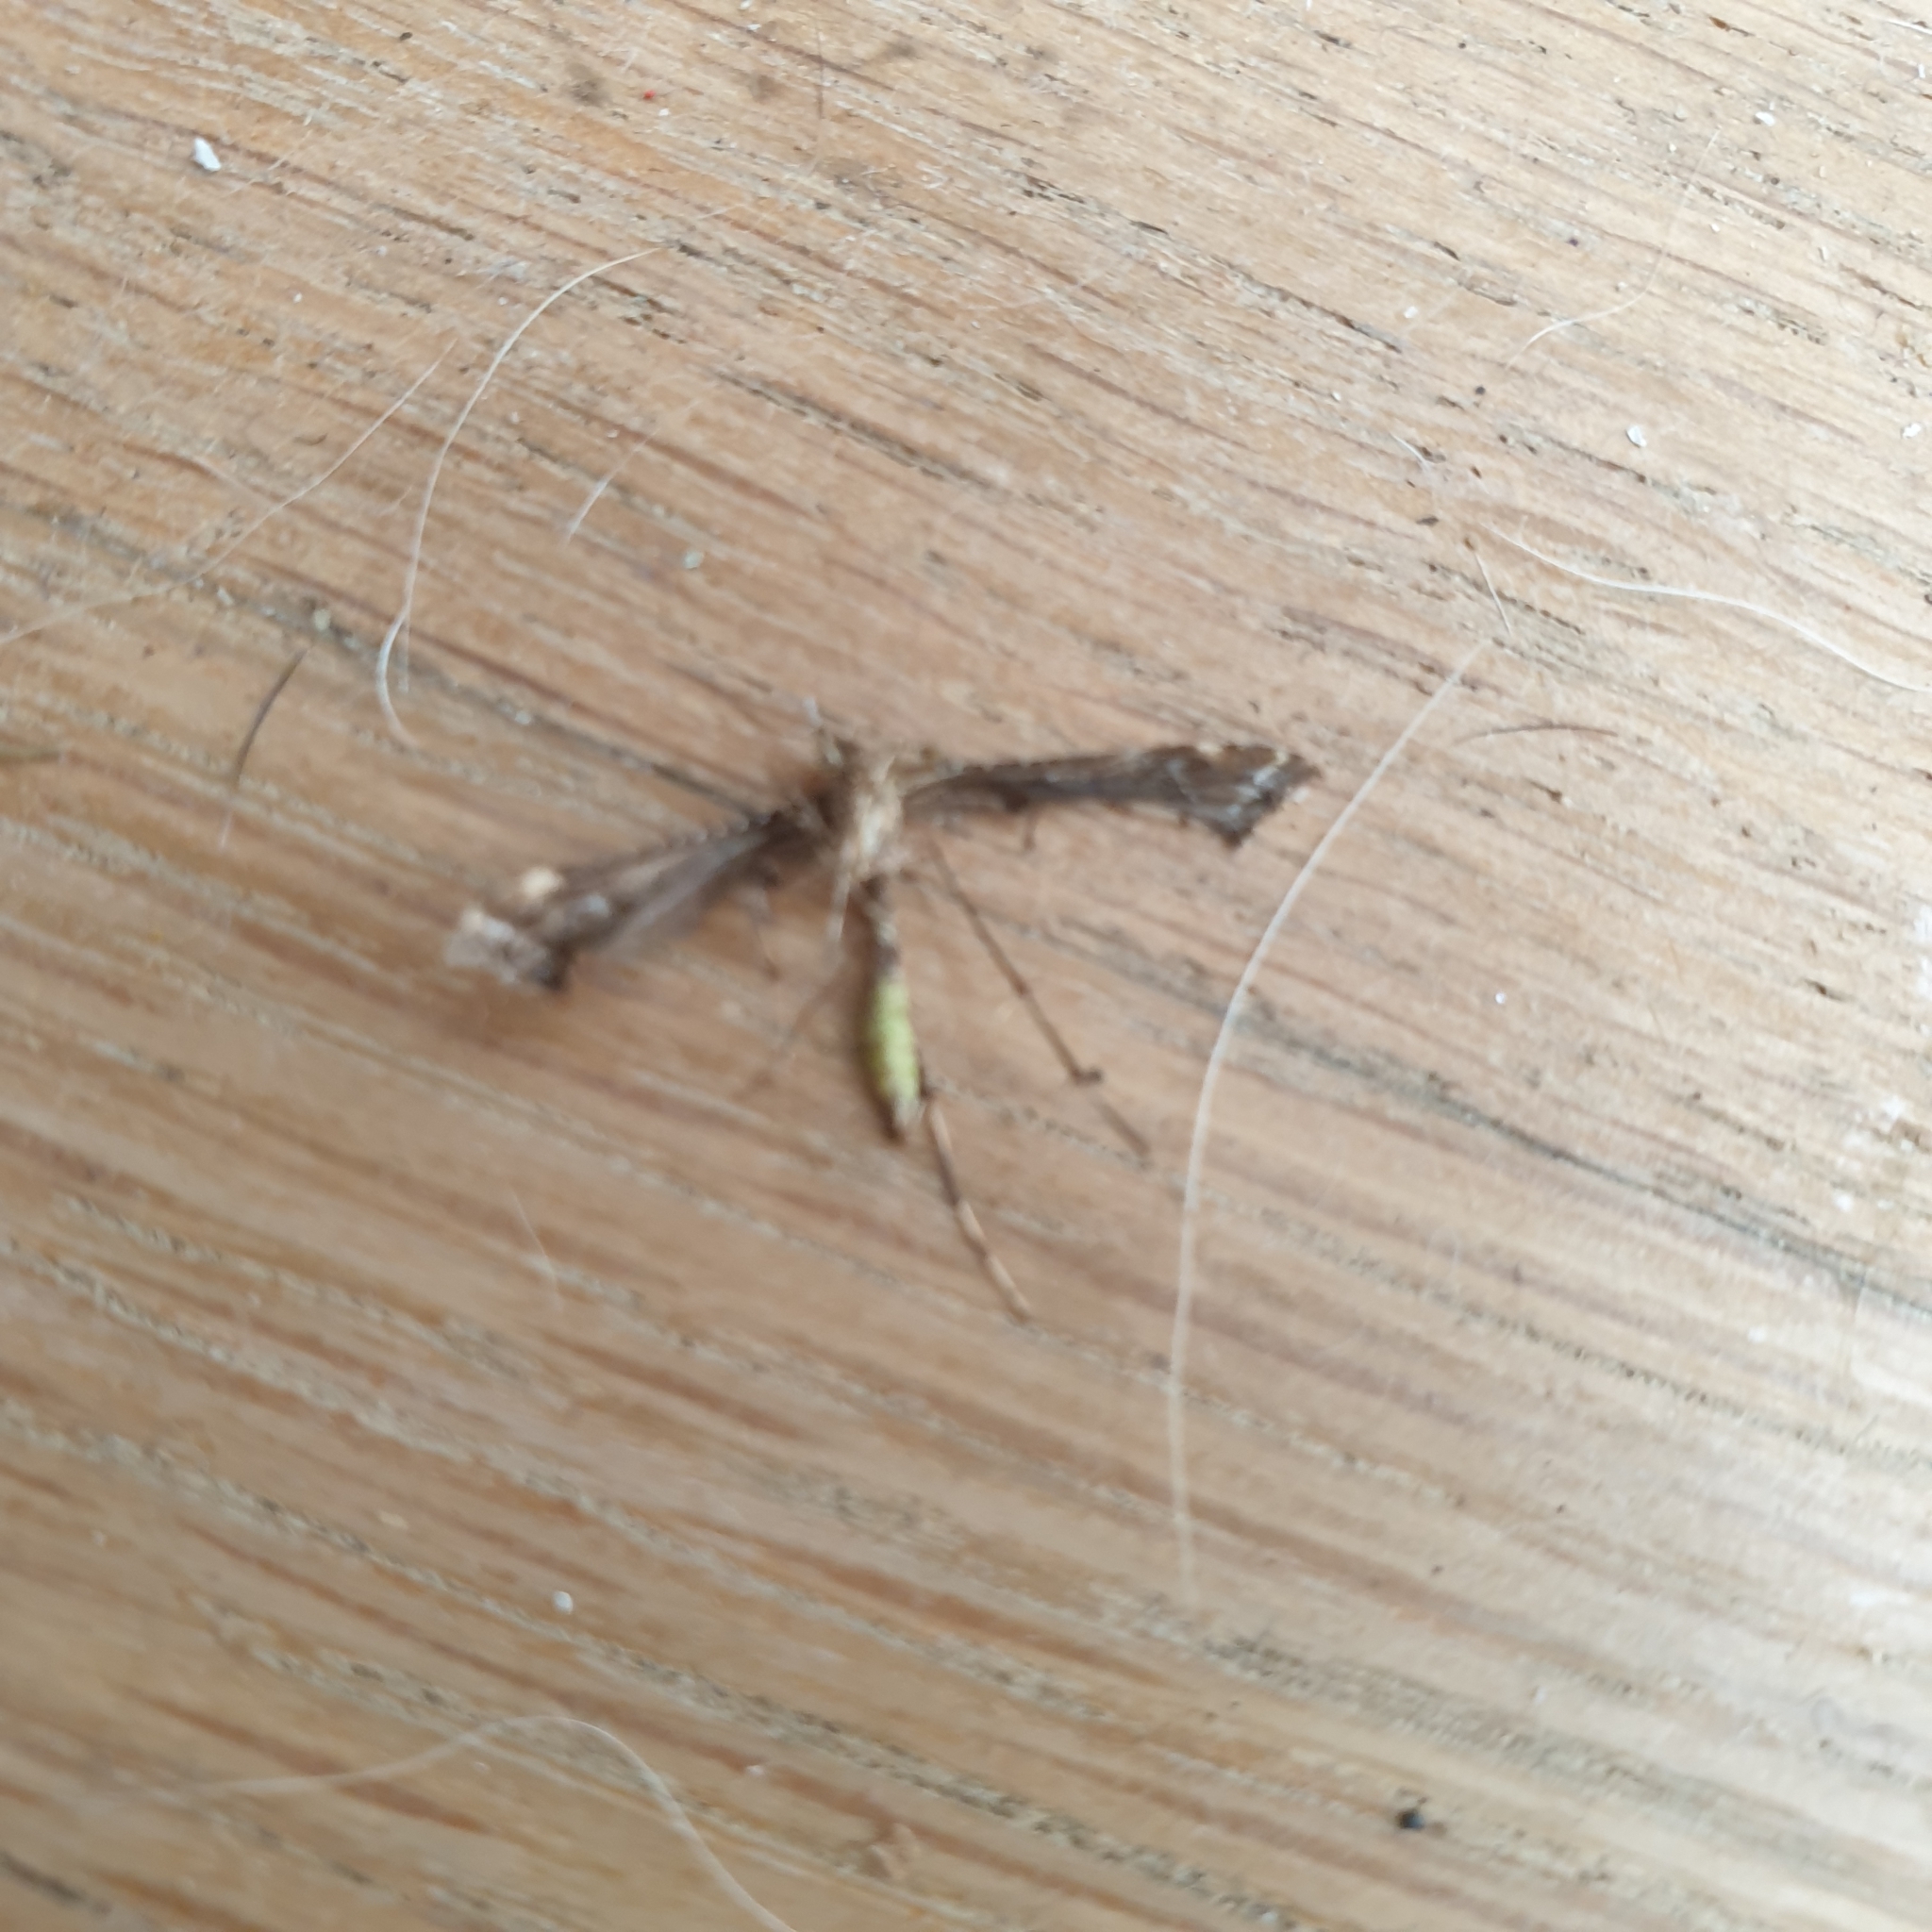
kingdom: Animalia
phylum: Arthropoda
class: Insecta
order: Lepidoptera
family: Pterophoridae
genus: Amblyptilia
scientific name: Amblyptilia acanthadactyla
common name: Beautiful plume
